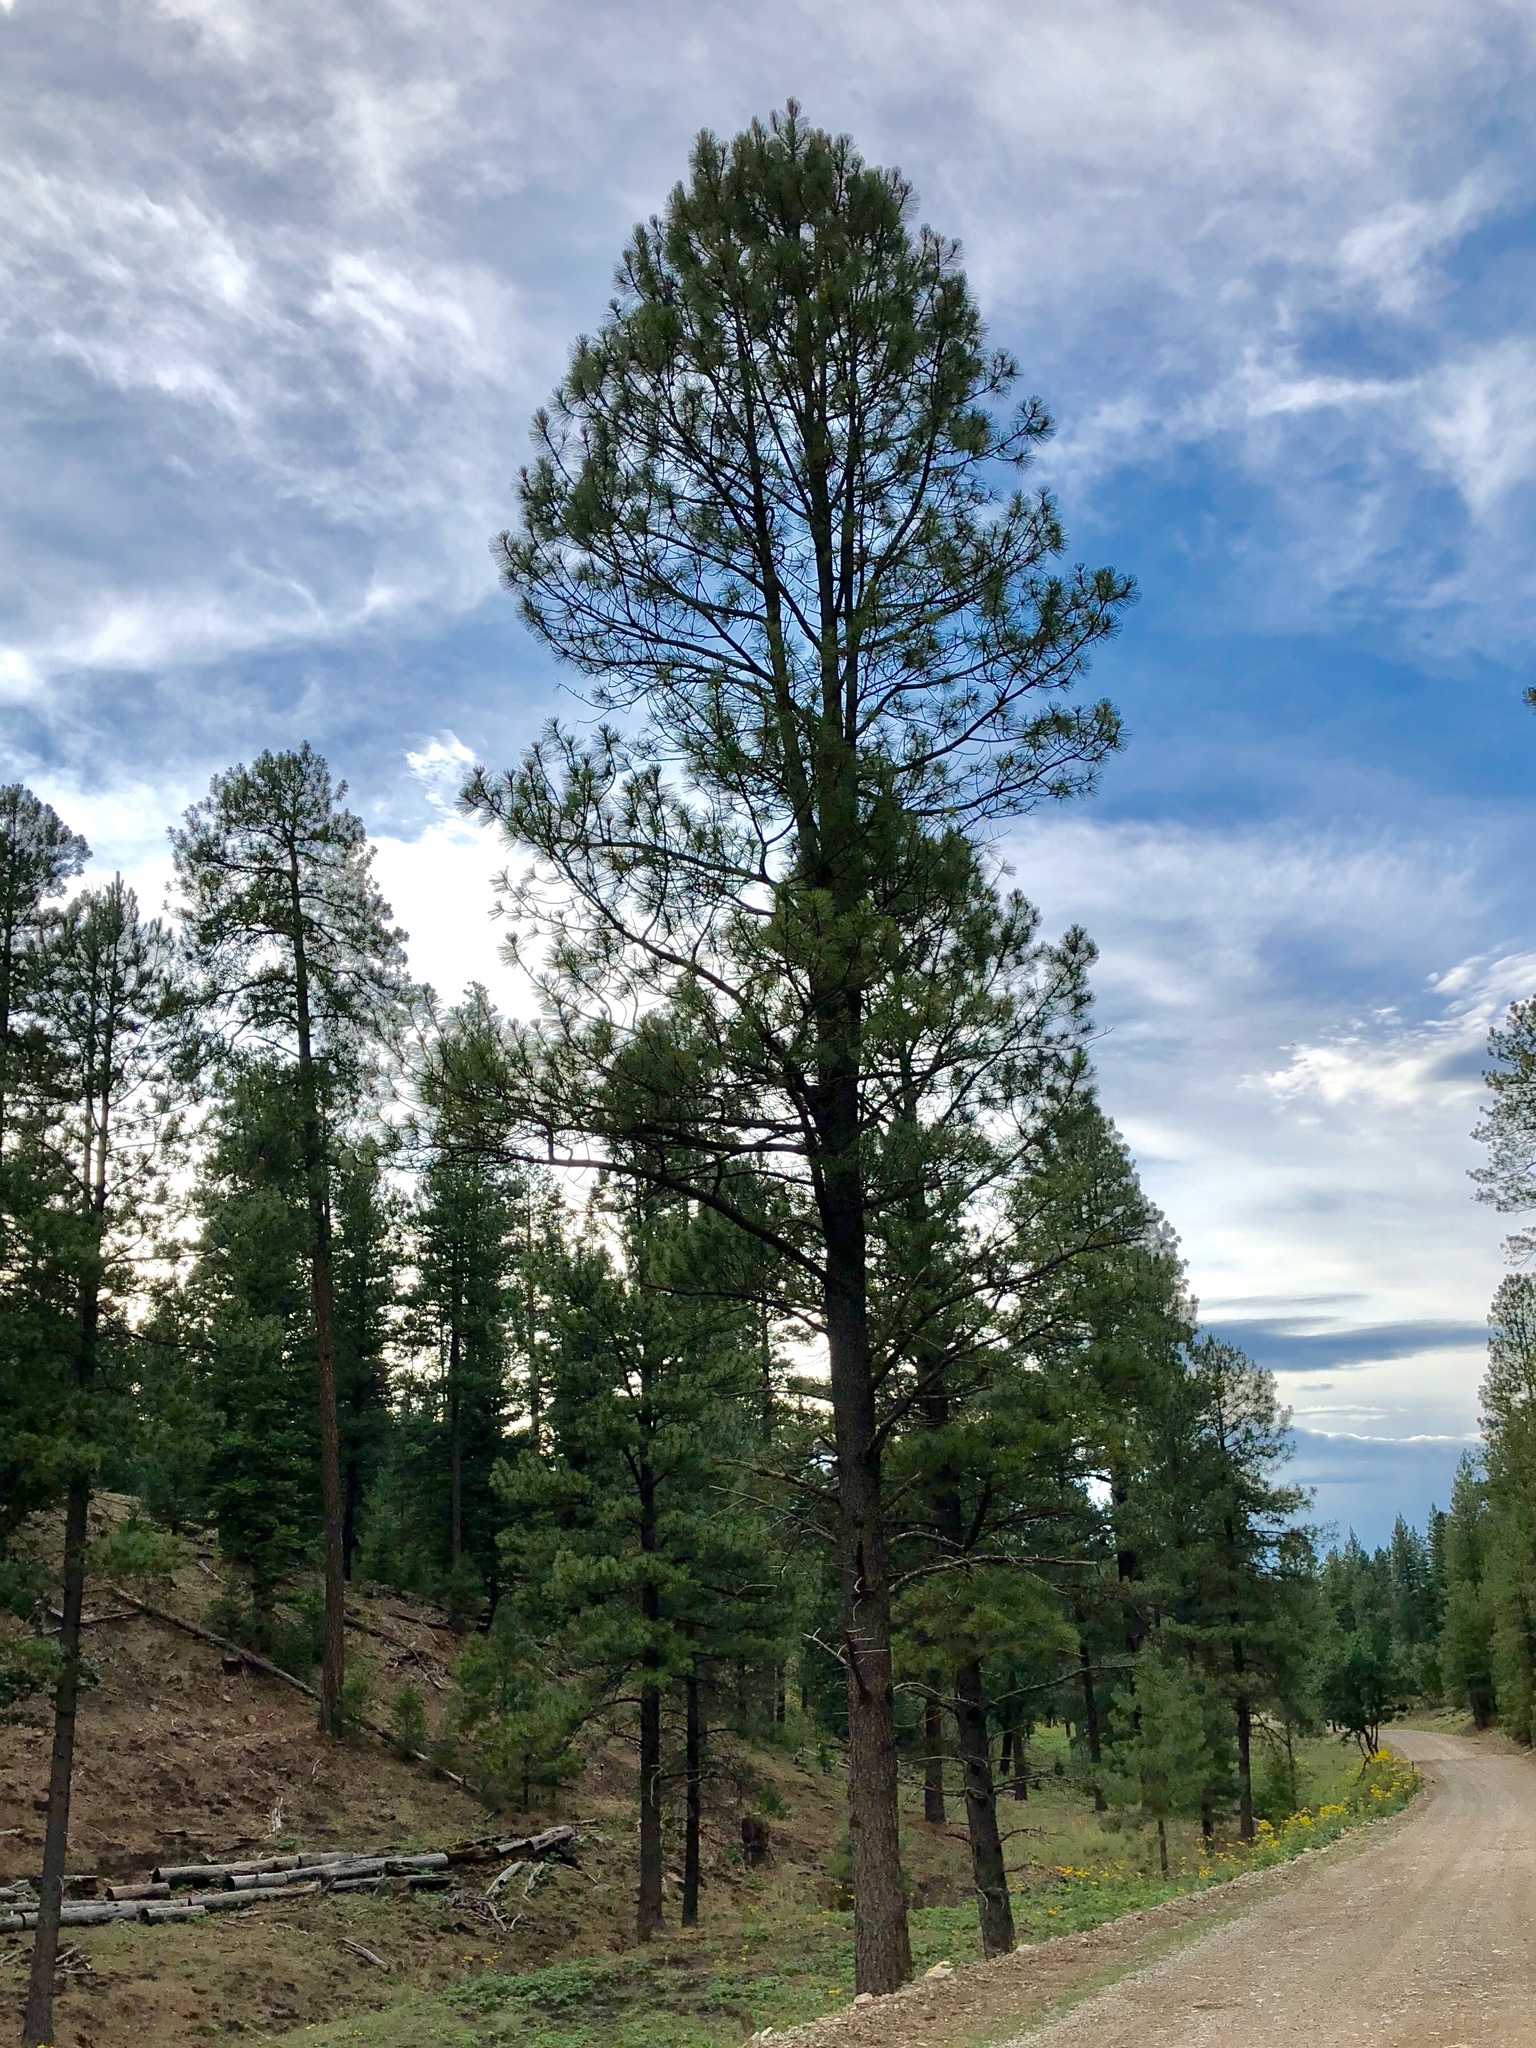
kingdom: Plantae
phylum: Tracheophyta
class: Pinopsida
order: Pinales
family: Pinaceae
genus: Pinus
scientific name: Pinus ponderosa
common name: Western yellow-pine
